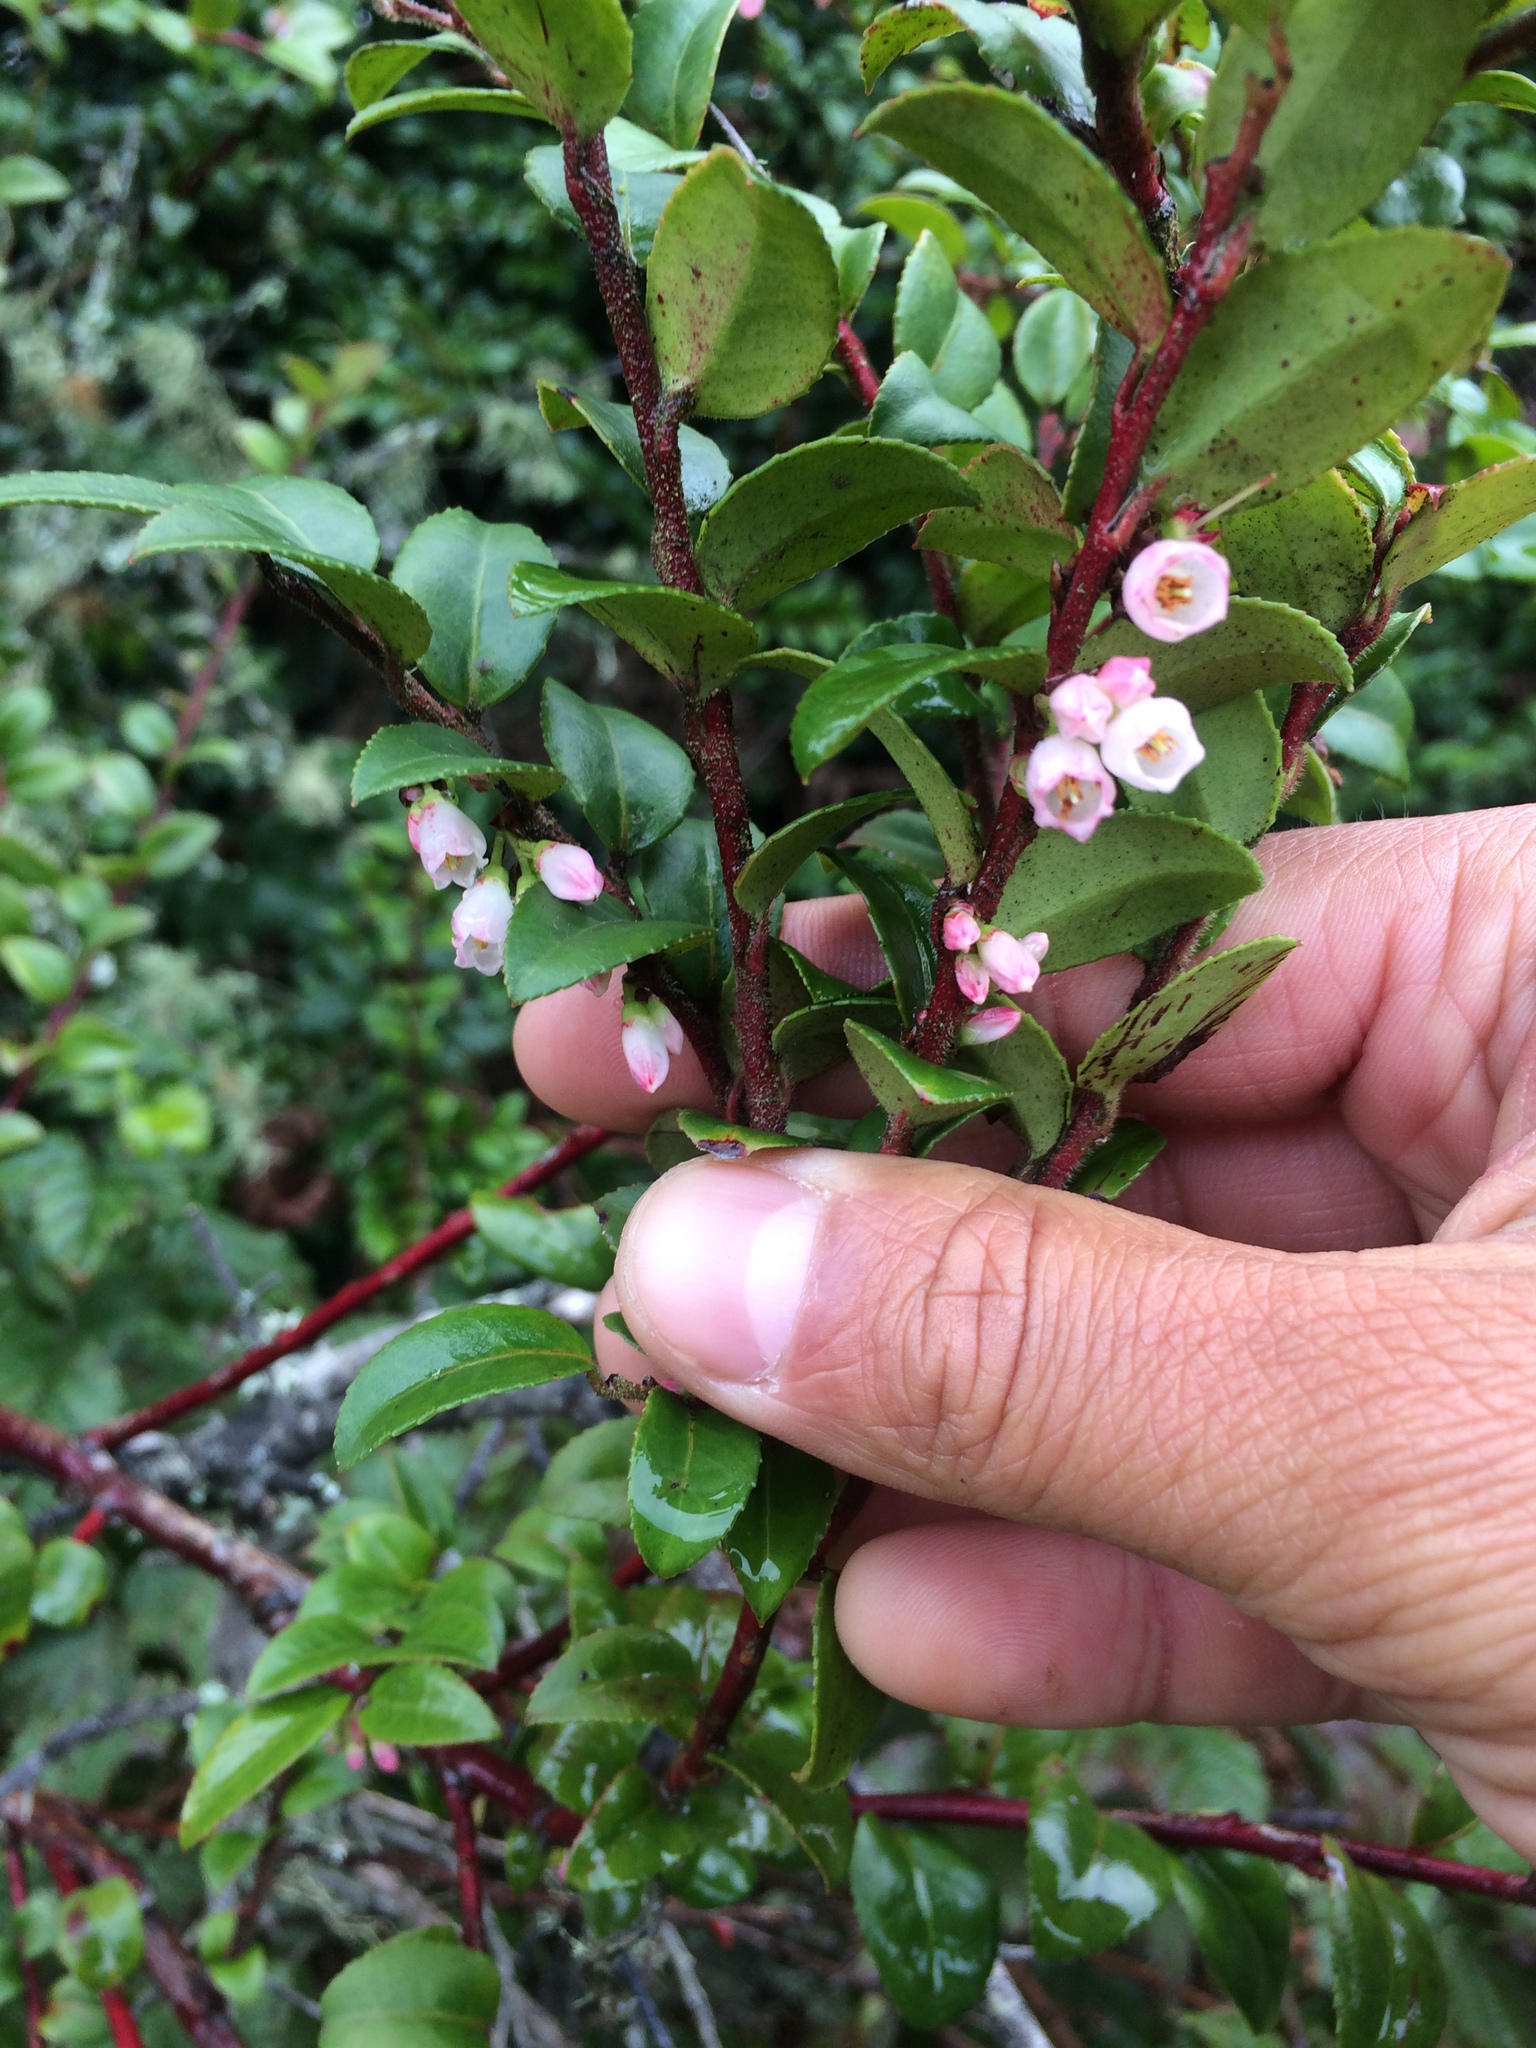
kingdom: Plantae
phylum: Tracheophyta
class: Magnoliopsida
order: Ericales
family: Ericaceae
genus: Vaccinium
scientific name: Vaccinium ovatum
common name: California-huckleberry
